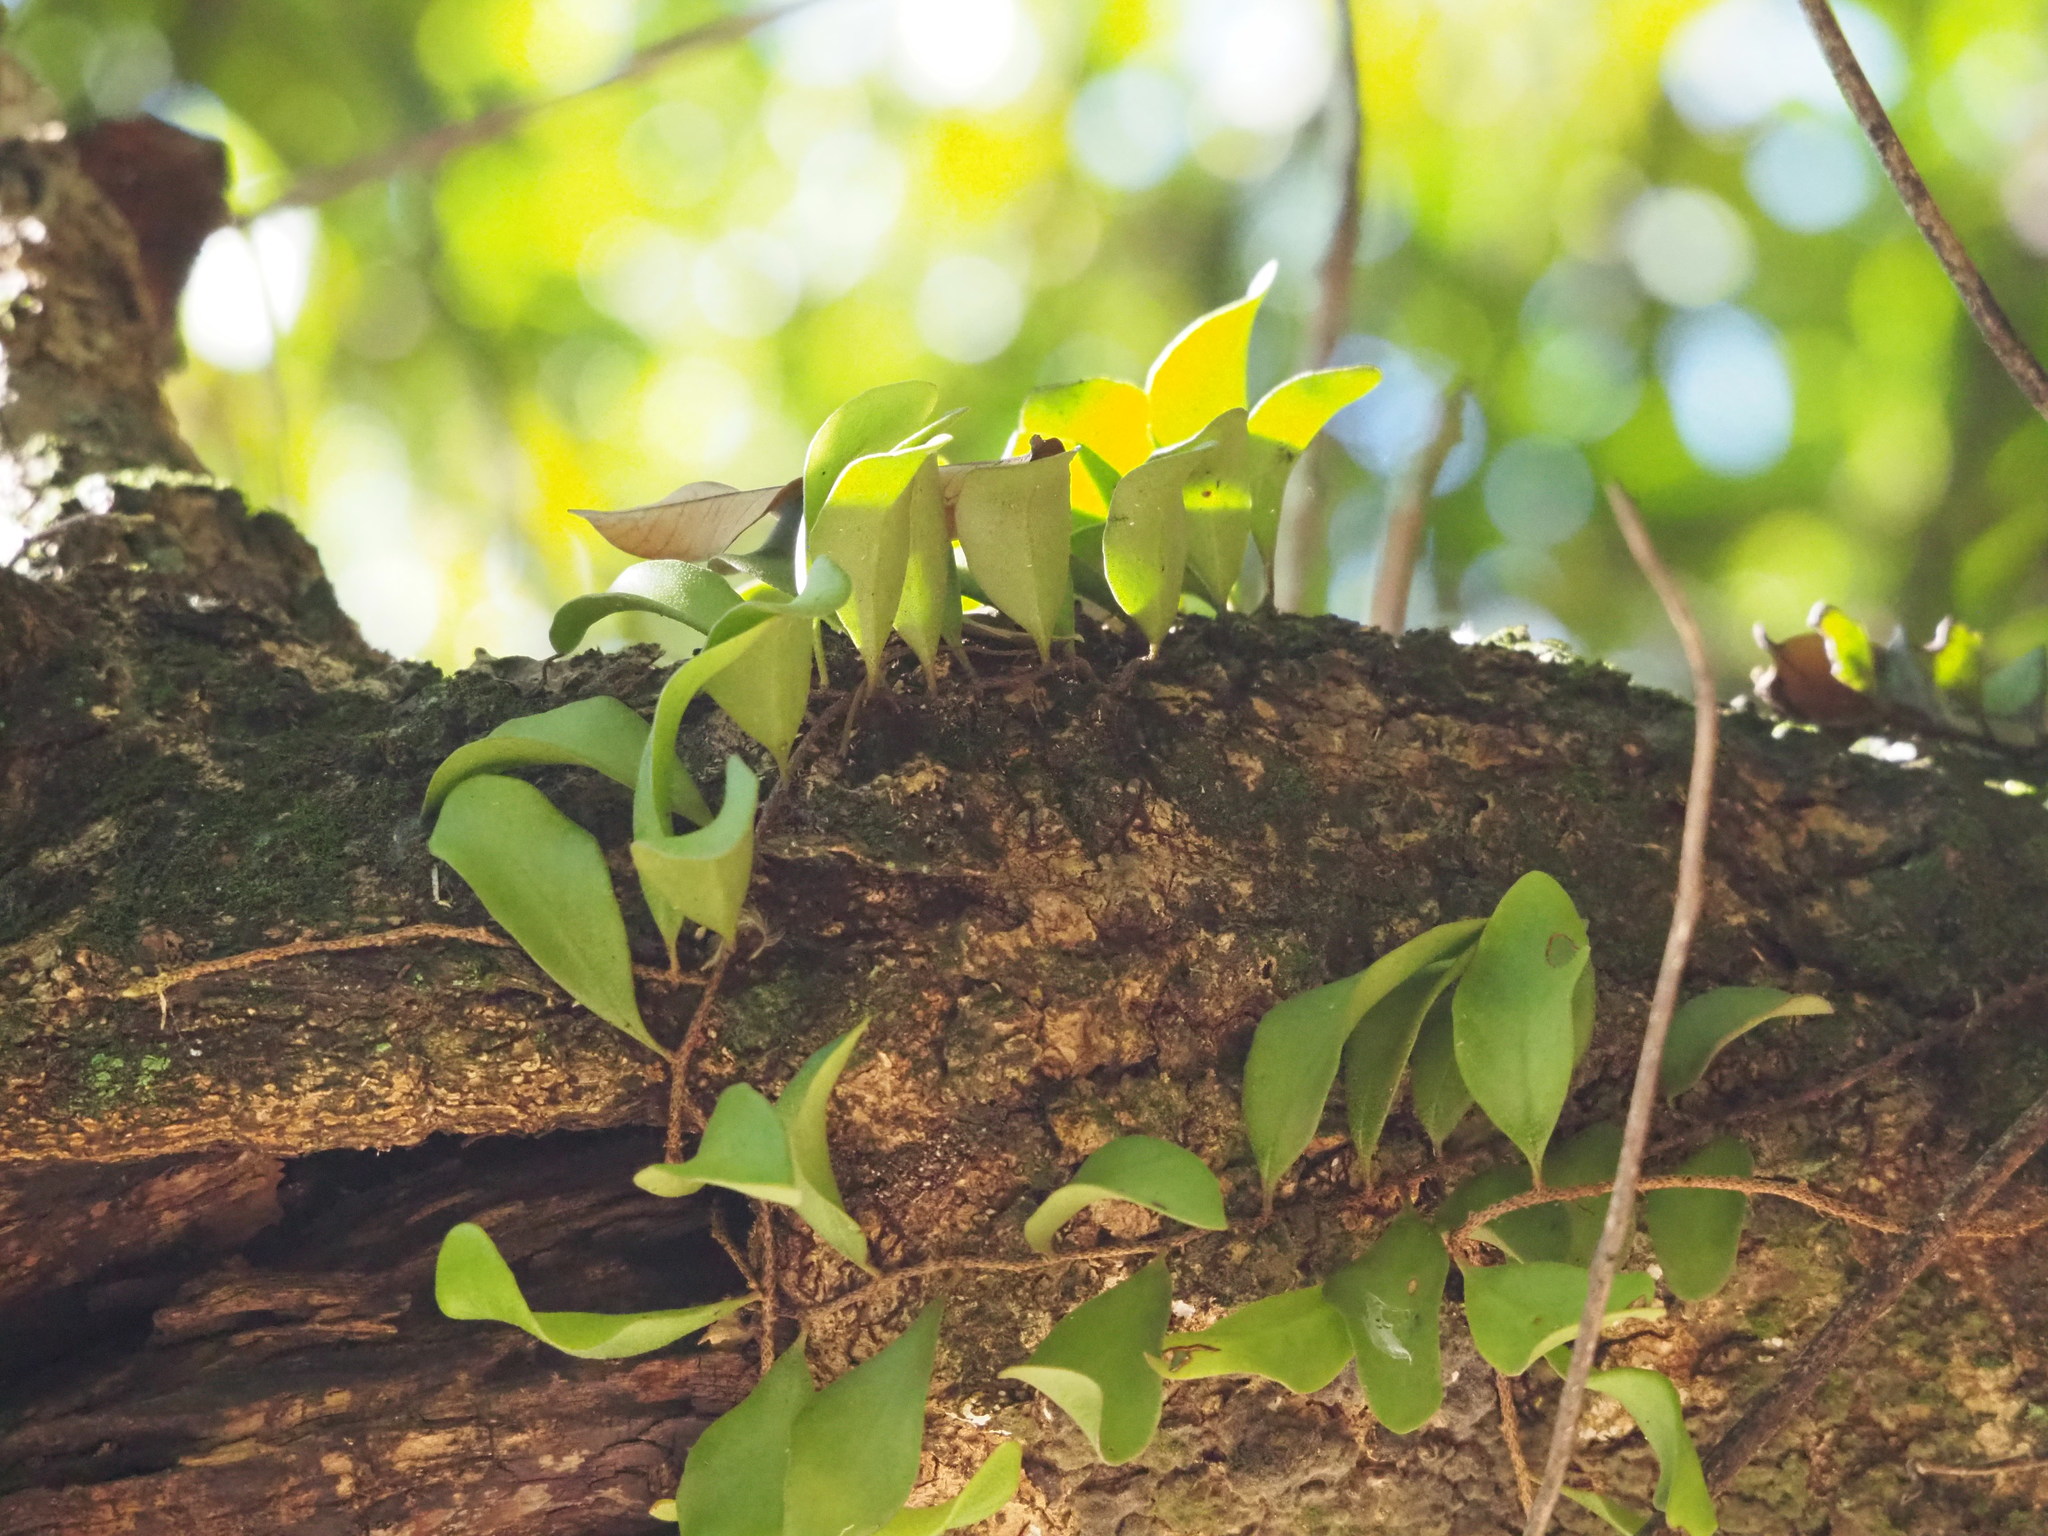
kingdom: Plantae
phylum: Tracheophyta
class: Polypodiopsida
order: Polypodiales
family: Polypodiaceae
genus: Pyrrosia
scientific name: Pyrrosia lanceolata
